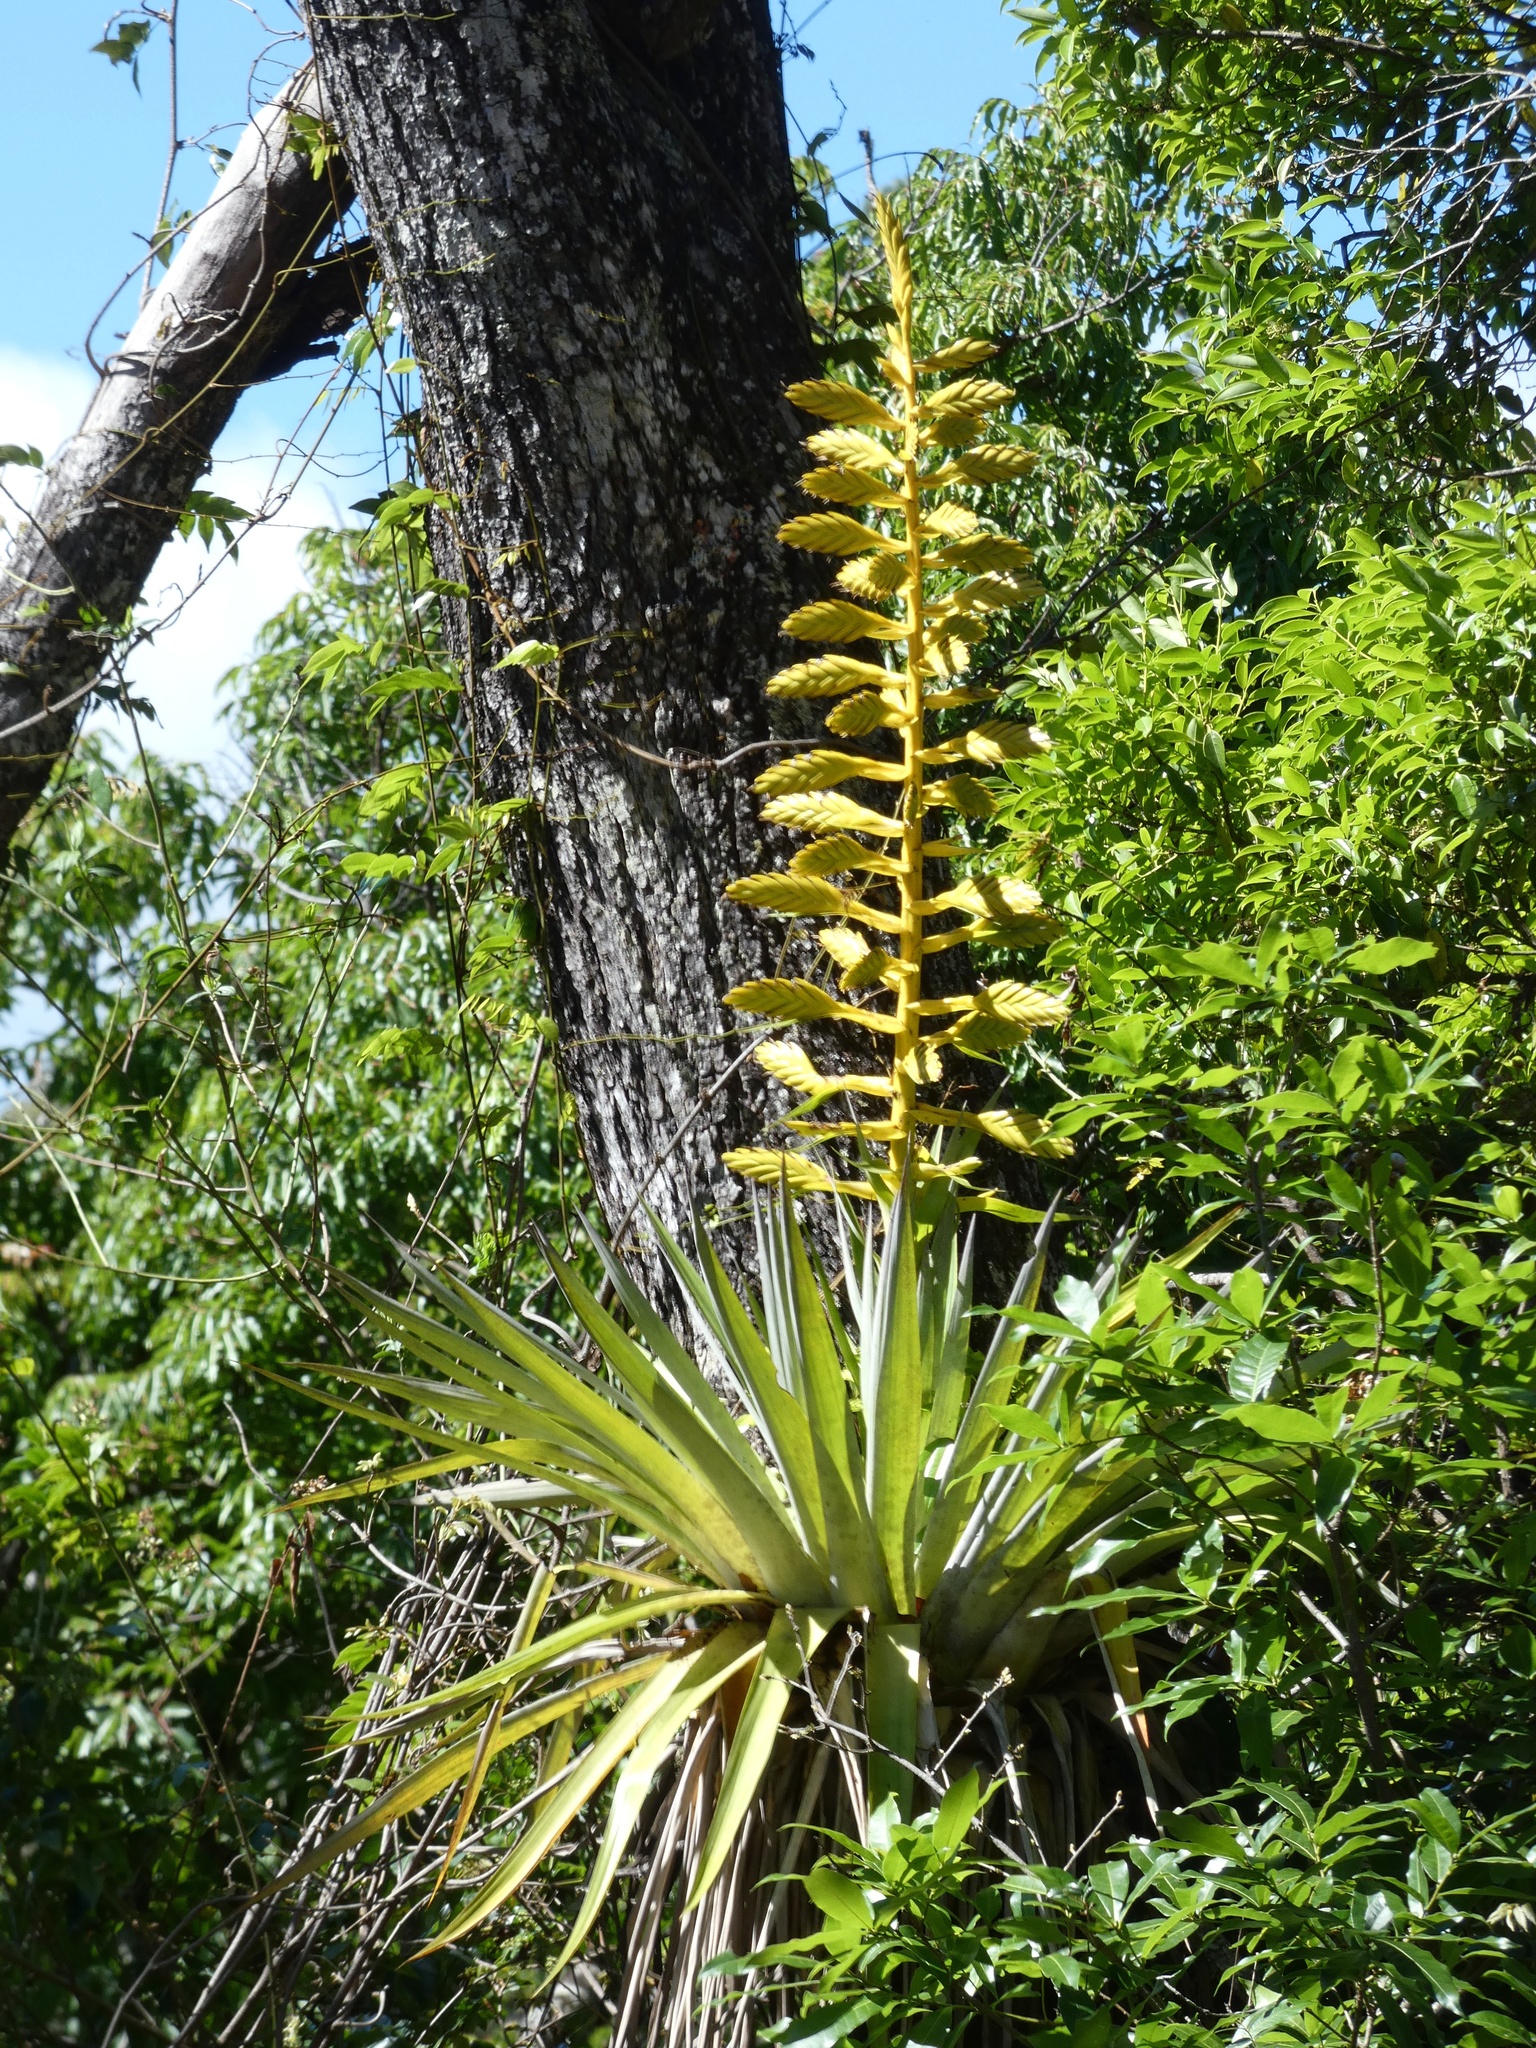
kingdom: Plantae
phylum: Tracheophyta
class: Liliopsida
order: Poales
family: Bromeliaceae
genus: Tillandsia
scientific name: Tillandsia oerstediana
